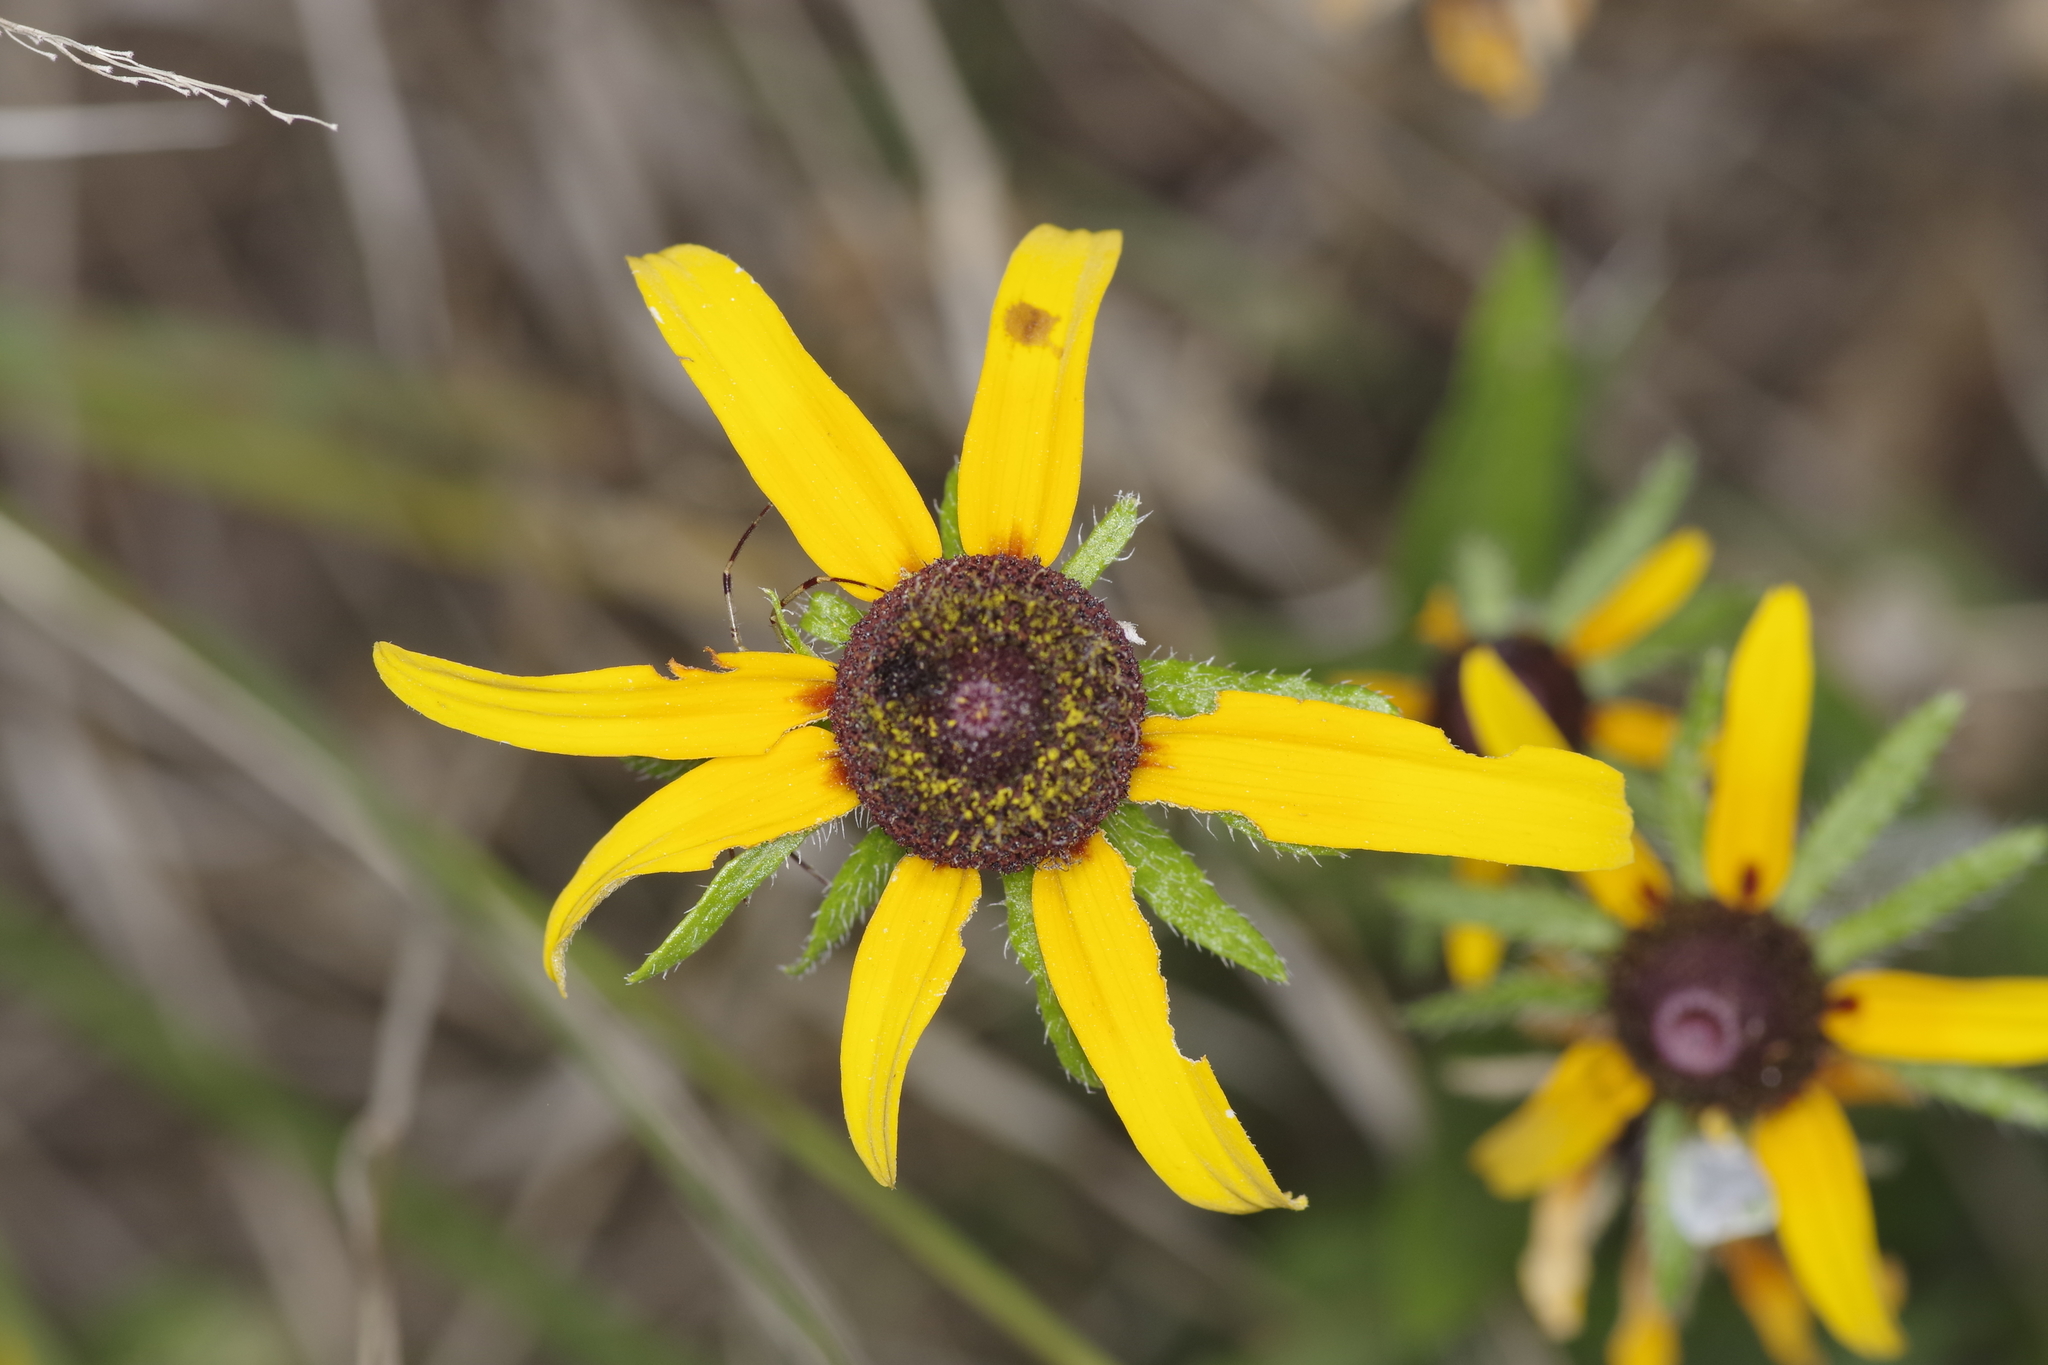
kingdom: Plantae
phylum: Tracheophyta
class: Magnoliopsida
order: Asterales
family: Asteraceae
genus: Rudbeckia
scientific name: Rudbeckia hirta
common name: Black-eyed-susan
